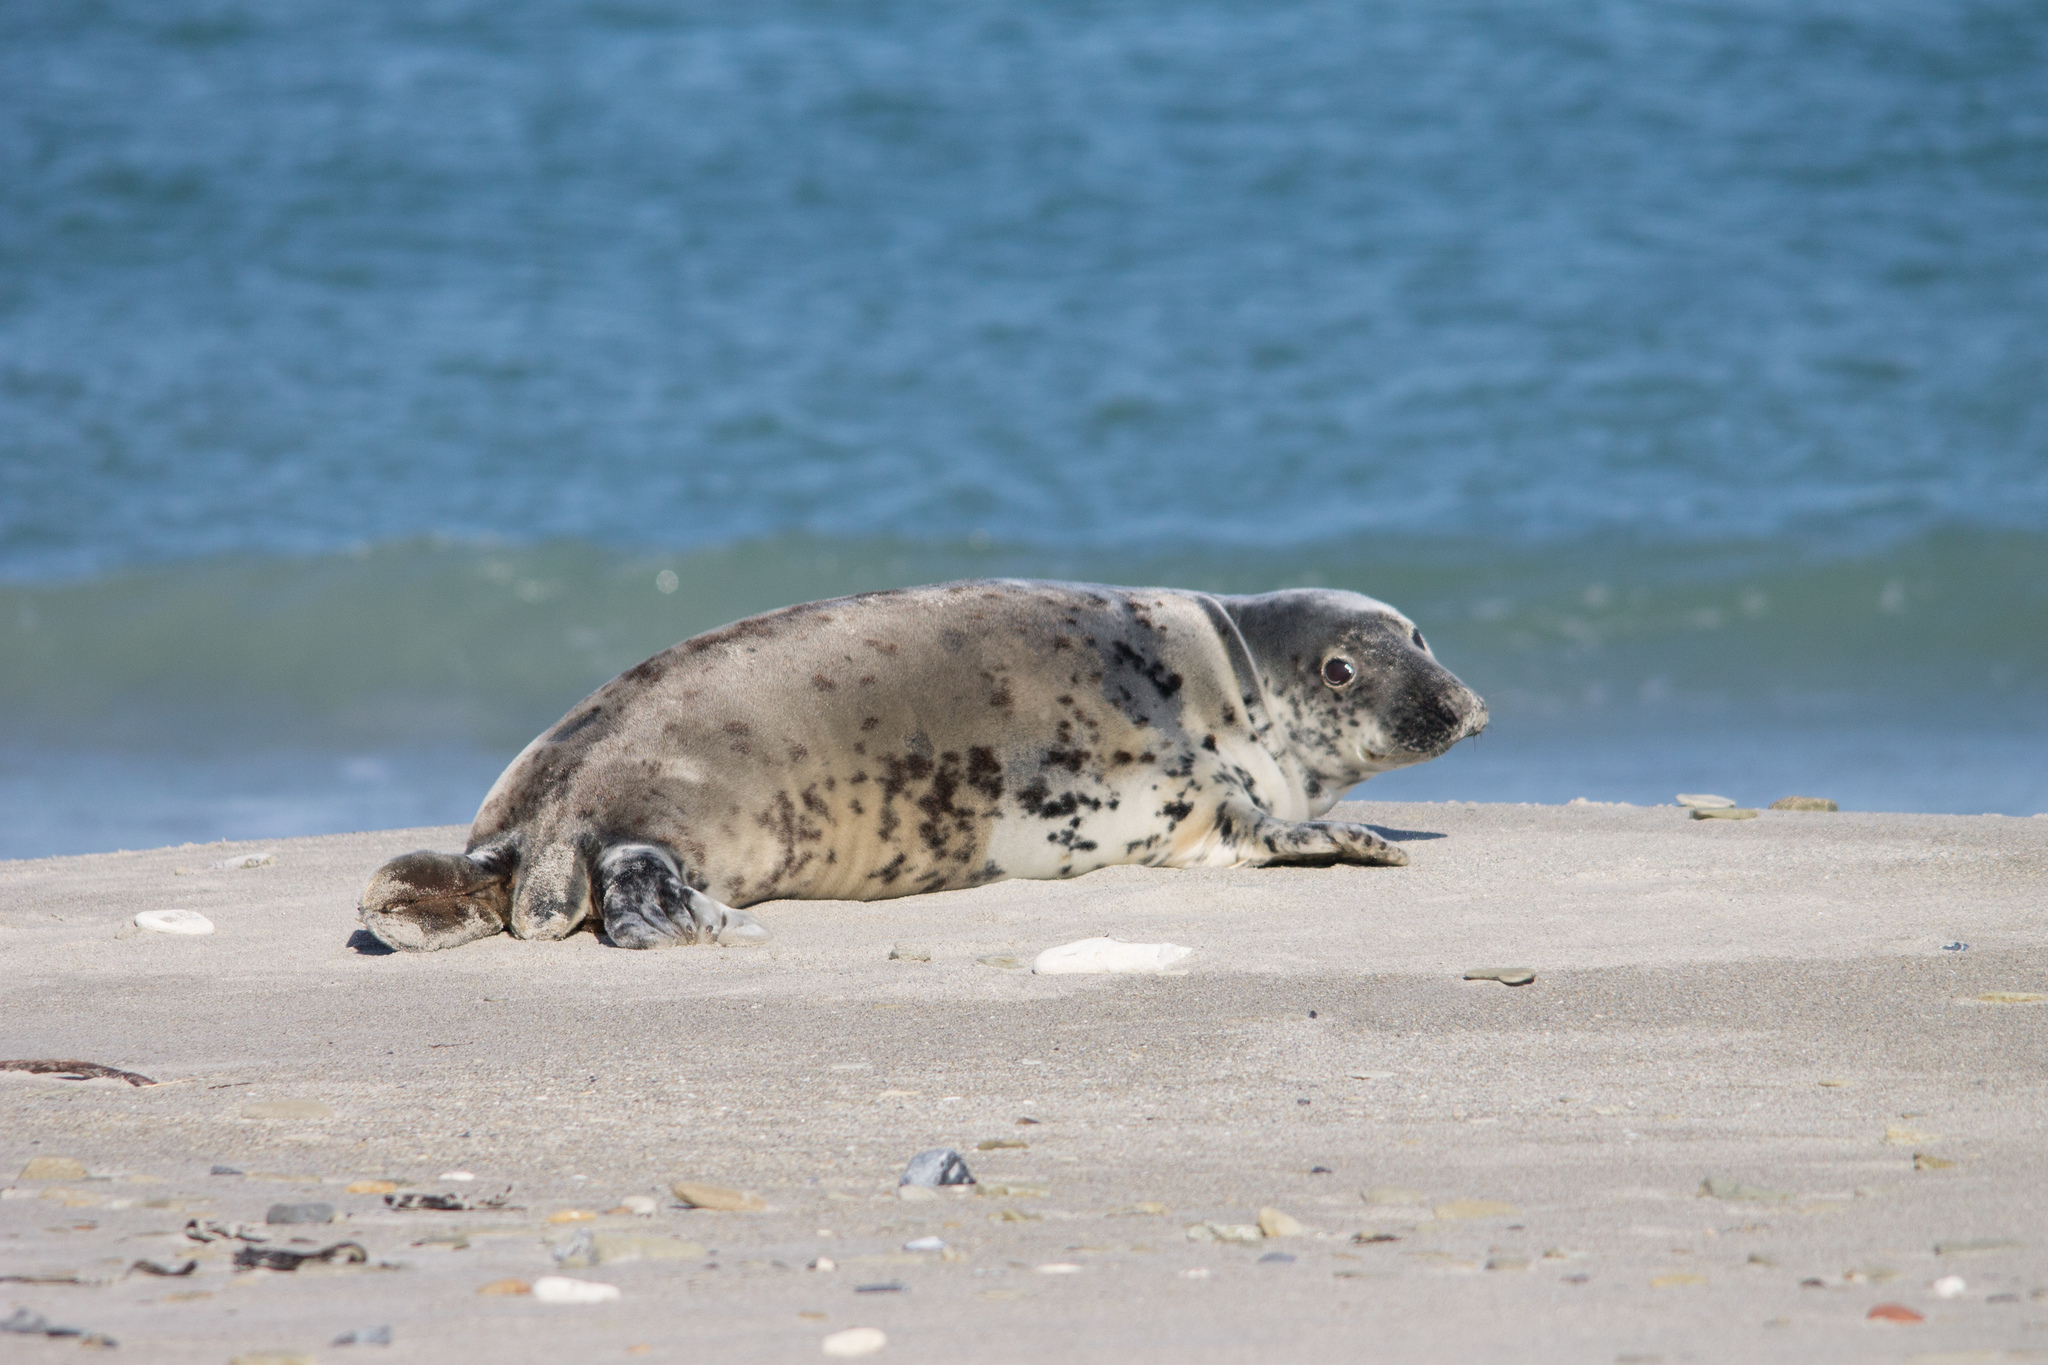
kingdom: Animalia
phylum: Chordata
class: Mammalia
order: Carnivora
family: Phocidae
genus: Halichoerus
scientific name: Halichoerus grypus
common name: Grey seal
